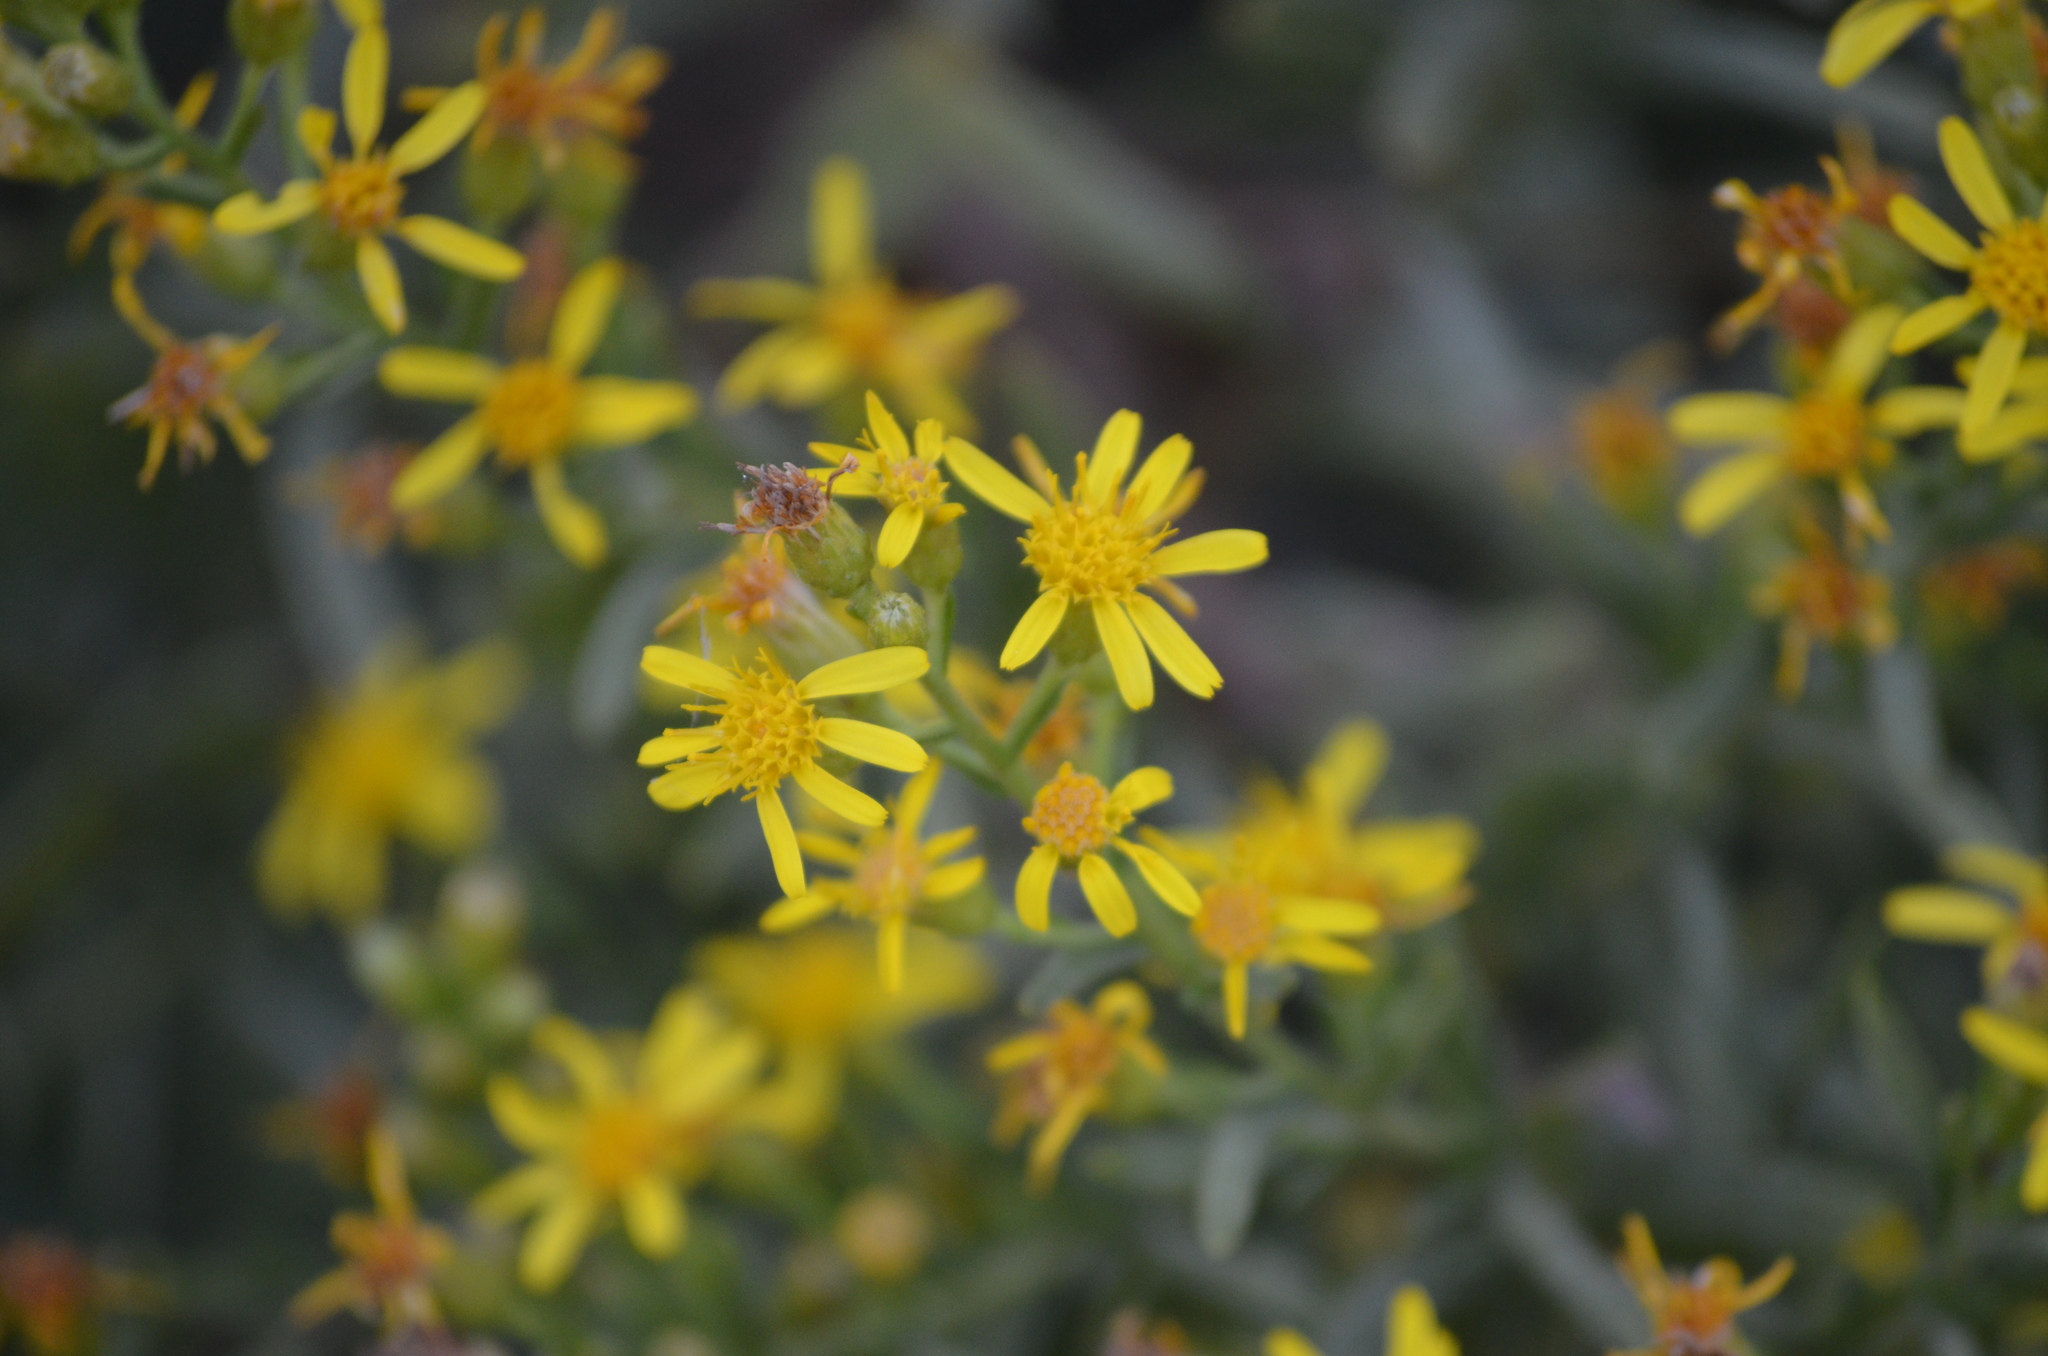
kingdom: Plantae
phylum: Tracheophyta
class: Magnoliopsida
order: Asterales
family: Asteraceae
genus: Dittrichia
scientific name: Dittrichia viscosa
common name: Woody fleabane
